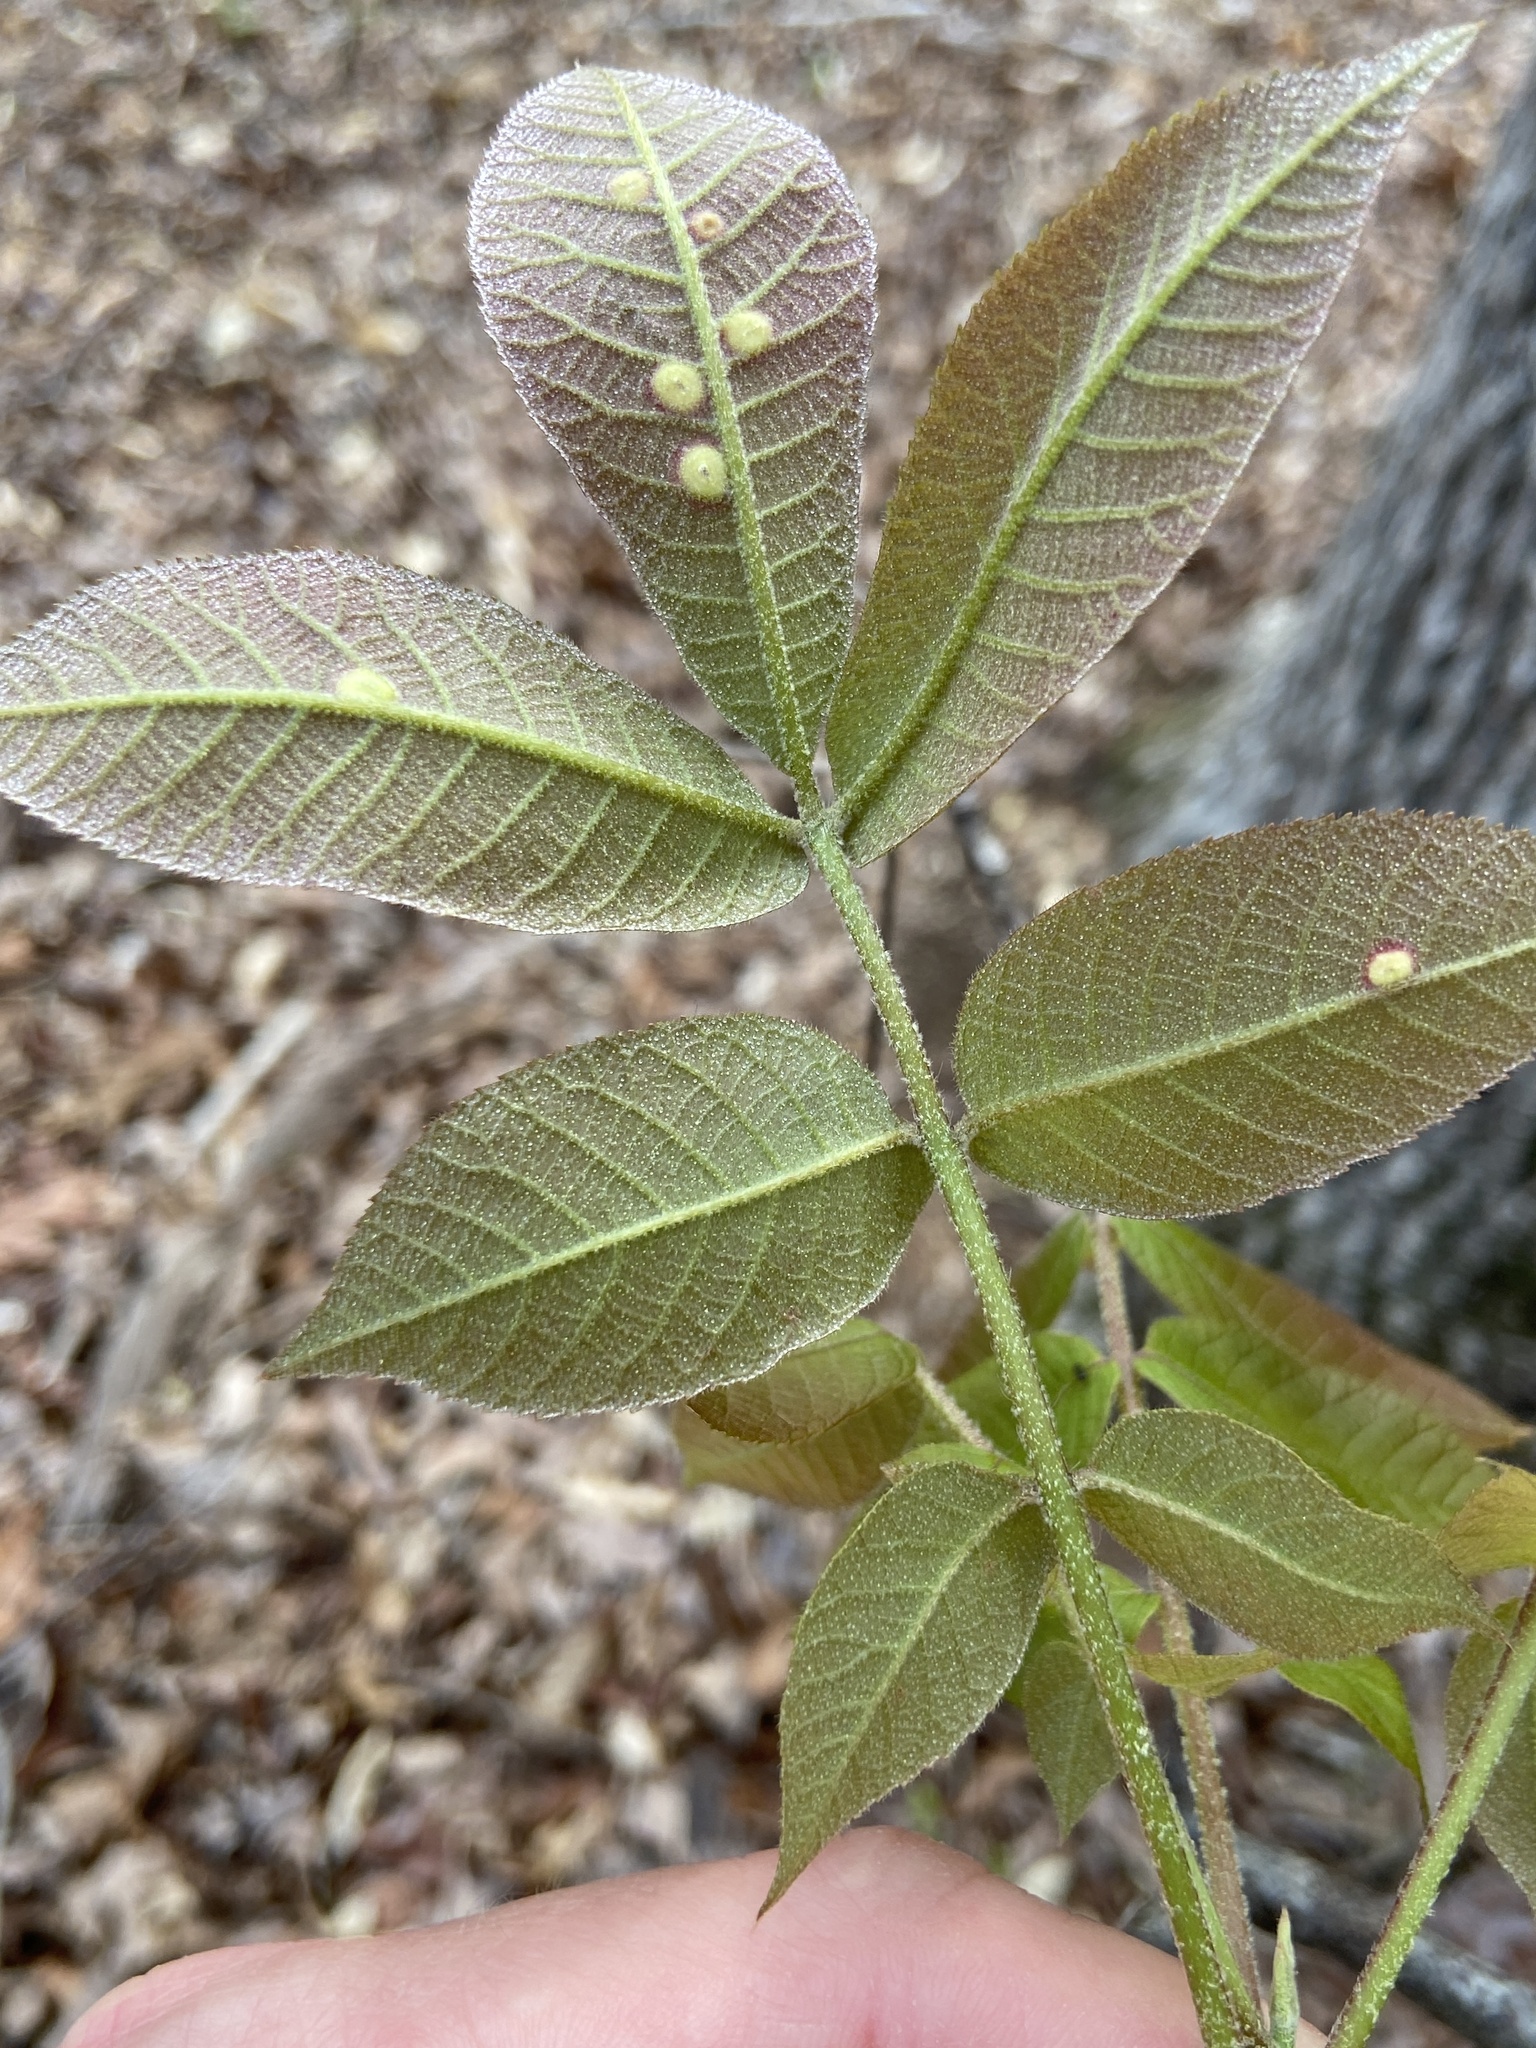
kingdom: Plantae
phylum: Tracheophyta
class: Magnoliopsida
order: Fagales
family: Juglandaceae
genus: Carya
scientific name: Carya alba
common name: Mockernut hickory
